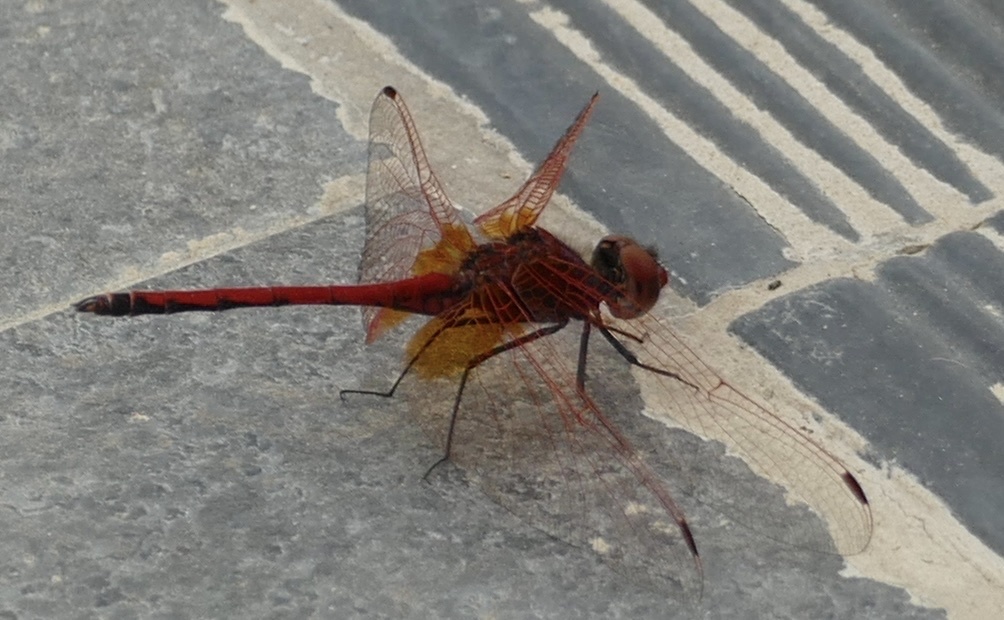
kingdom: Animalia
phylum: Arthropoda
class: Insecta
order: Odonata
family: Libellulidae
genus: Trithemis
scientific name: Trithemis arteriosa
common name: Red-veined dropwing
